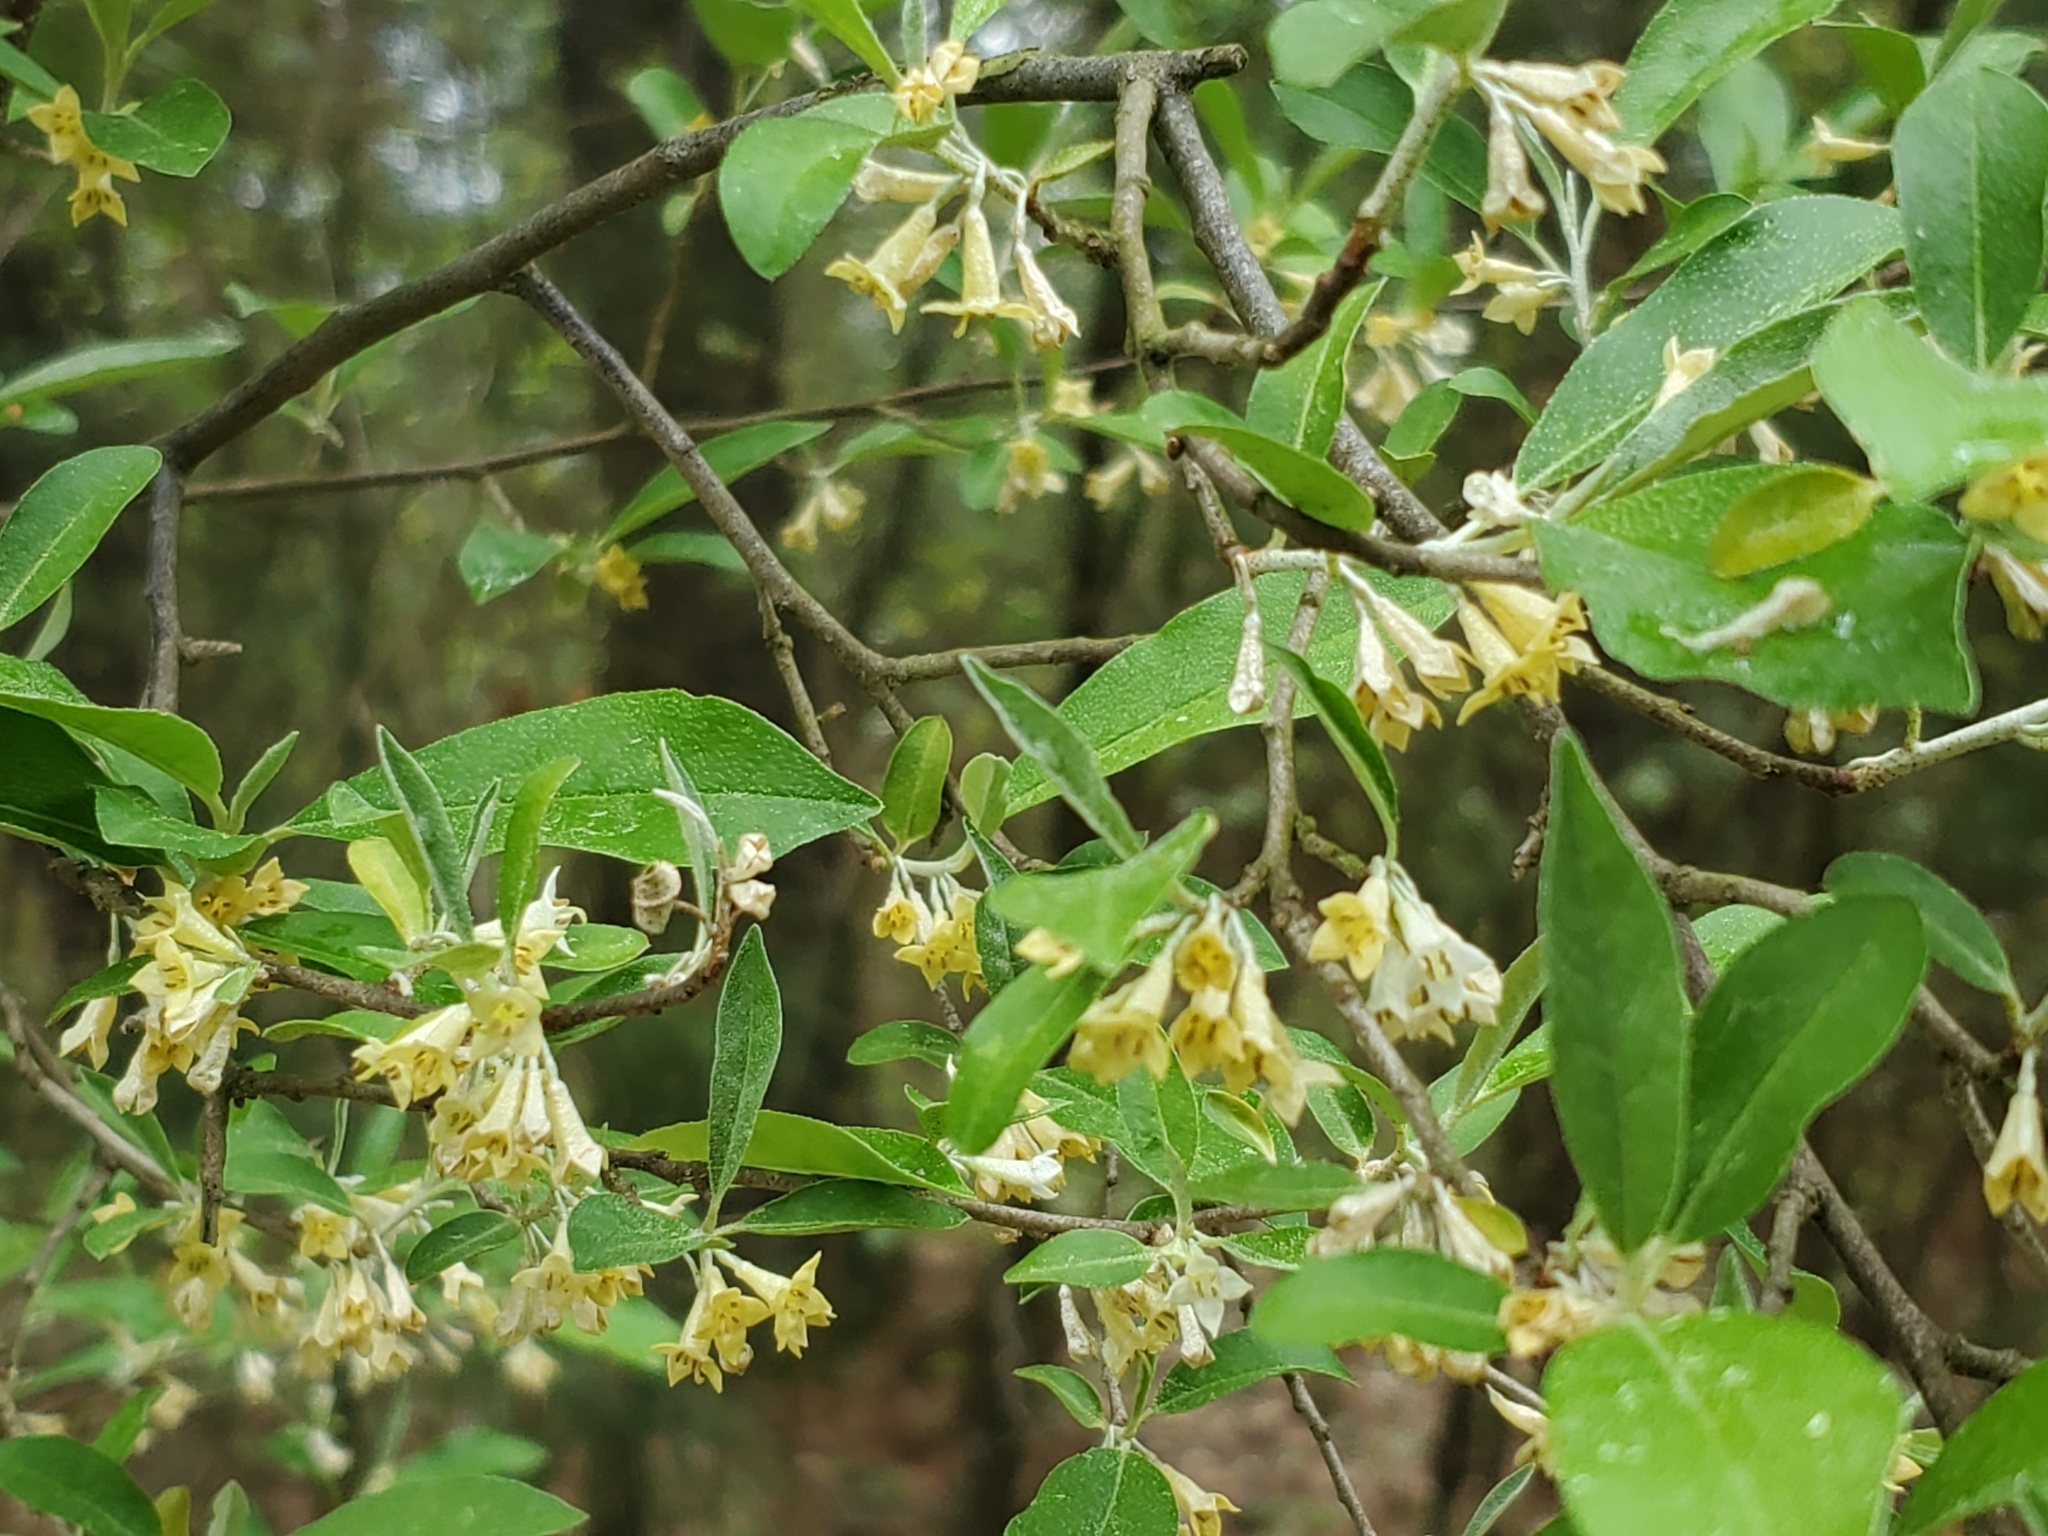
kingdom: Plantae
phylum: Tracheophyta
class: Magnoliopsida
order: Rosales
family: Elaeagnaceae
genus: Elaeagnus
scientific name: Elaeagnus umbellata
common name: Autumn olive
